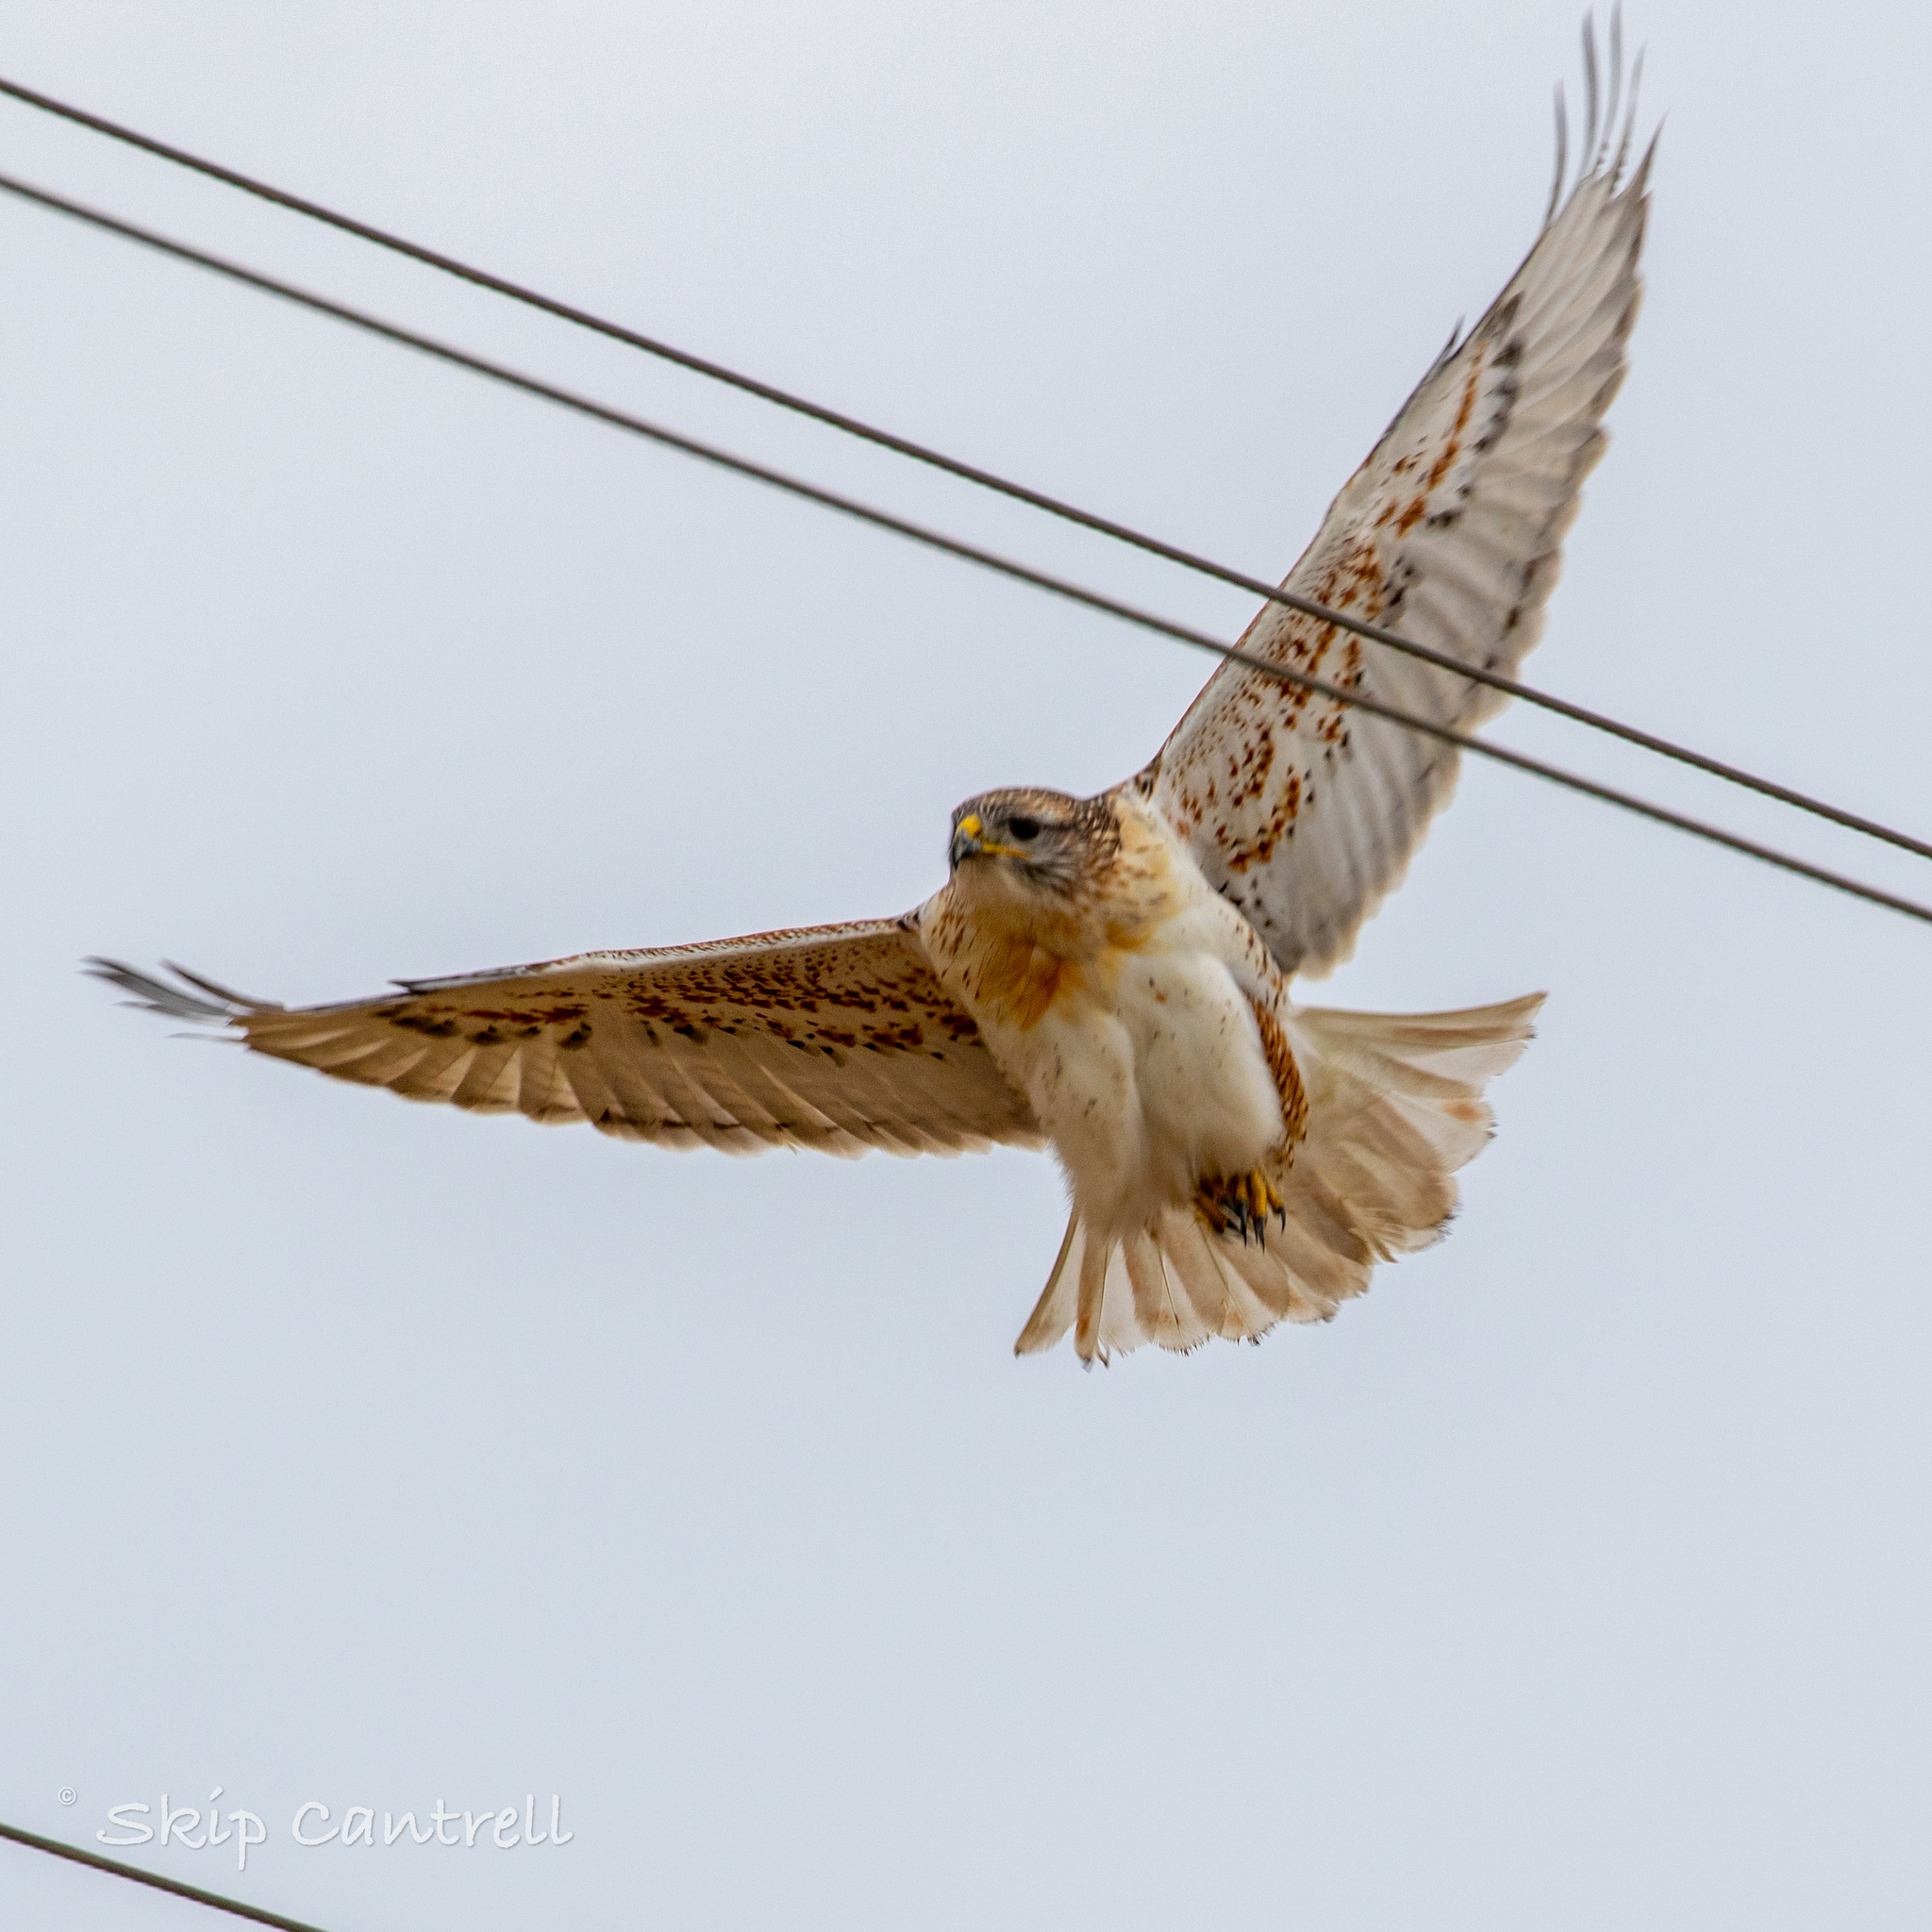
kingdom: Animalia
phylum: Chordata
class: Aves
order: Accipitriformes
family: Accipitridae
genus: Buteo
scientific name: Buteo regalis
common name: Ferruginous hawk
